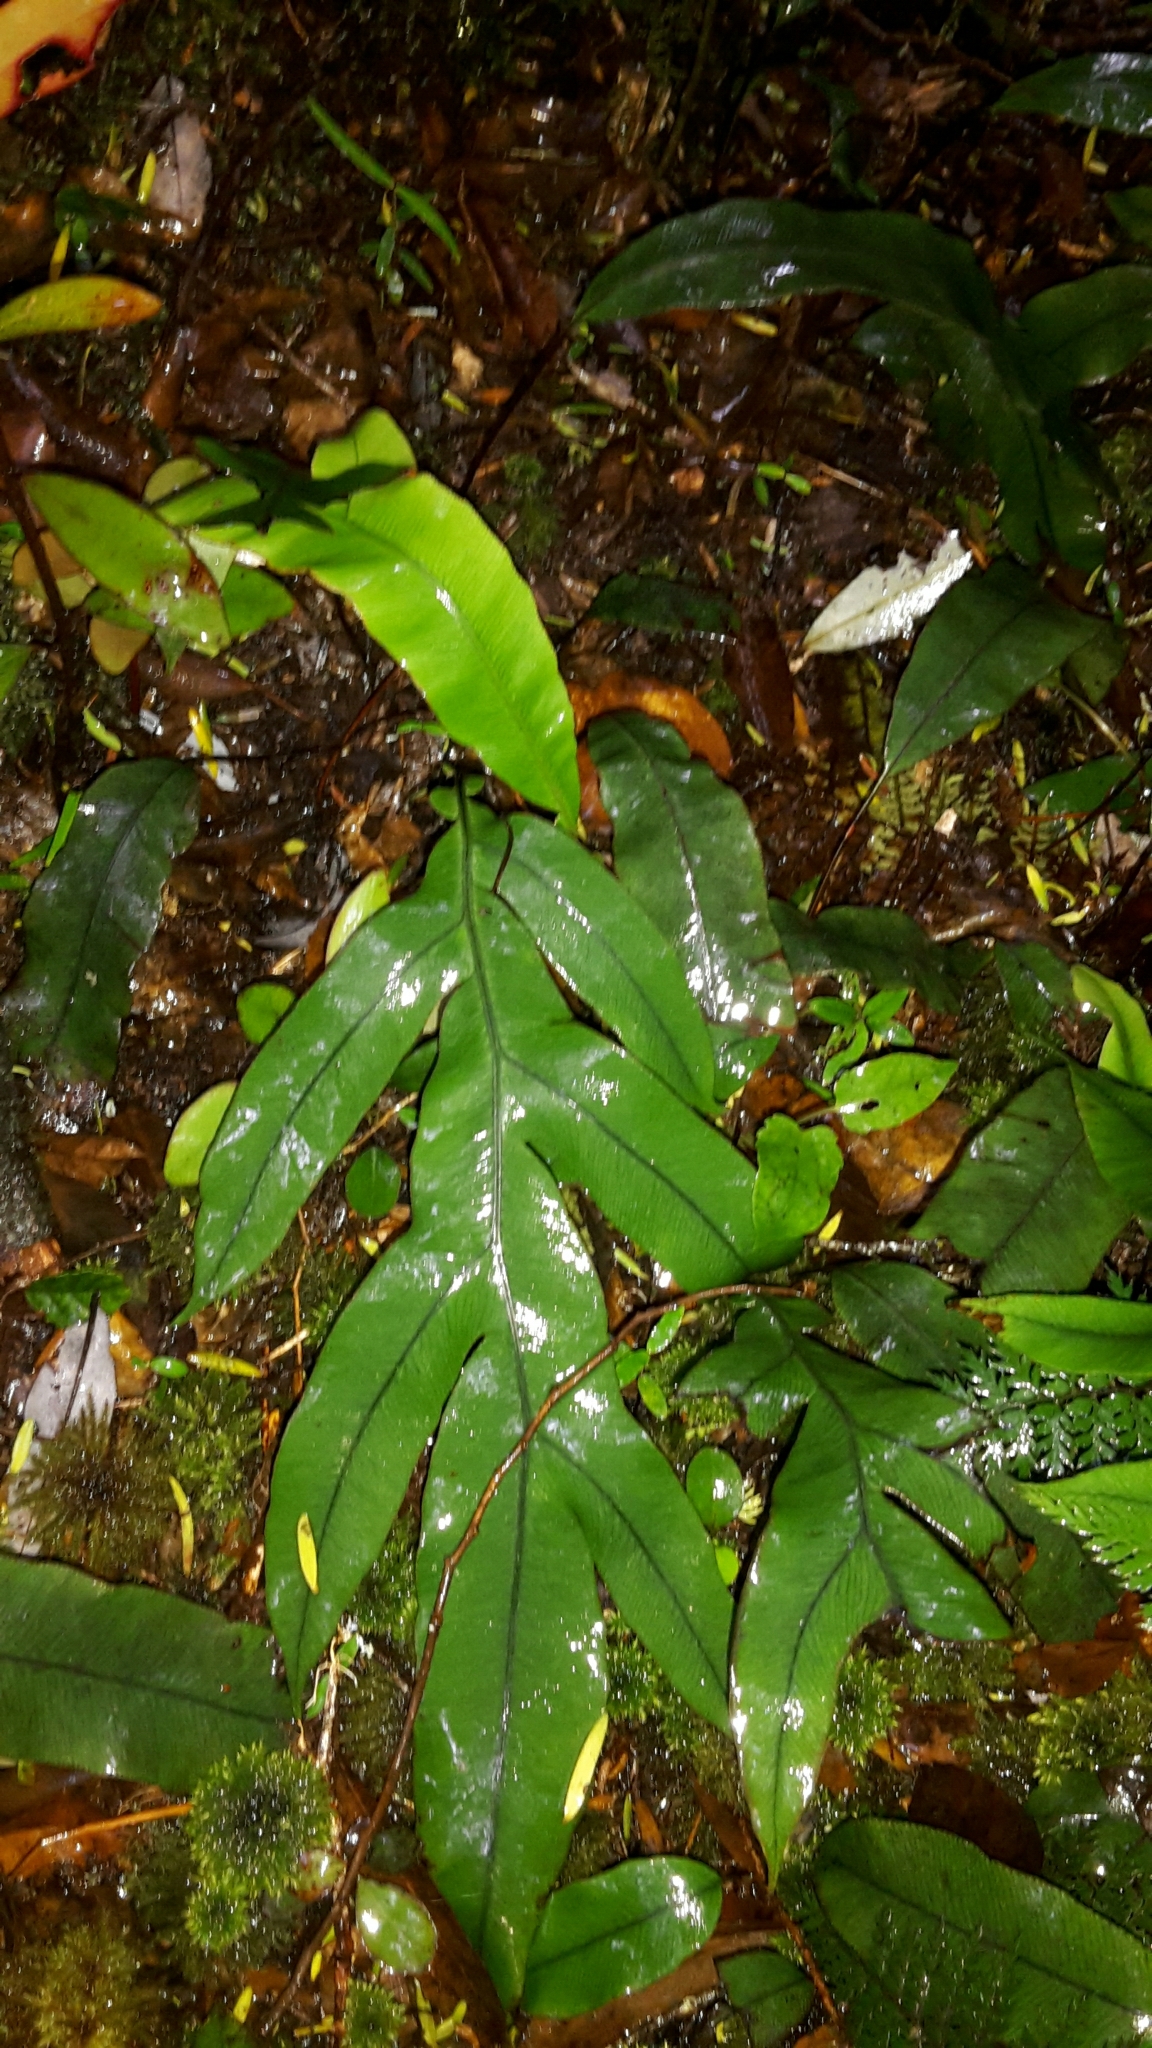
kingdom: Plantae
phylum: Tracheophyta
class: Polypodiopsida
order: Polypodiales
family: Blechnaceae
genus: Austroblechnum
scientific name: Austroblechnum colensoi
